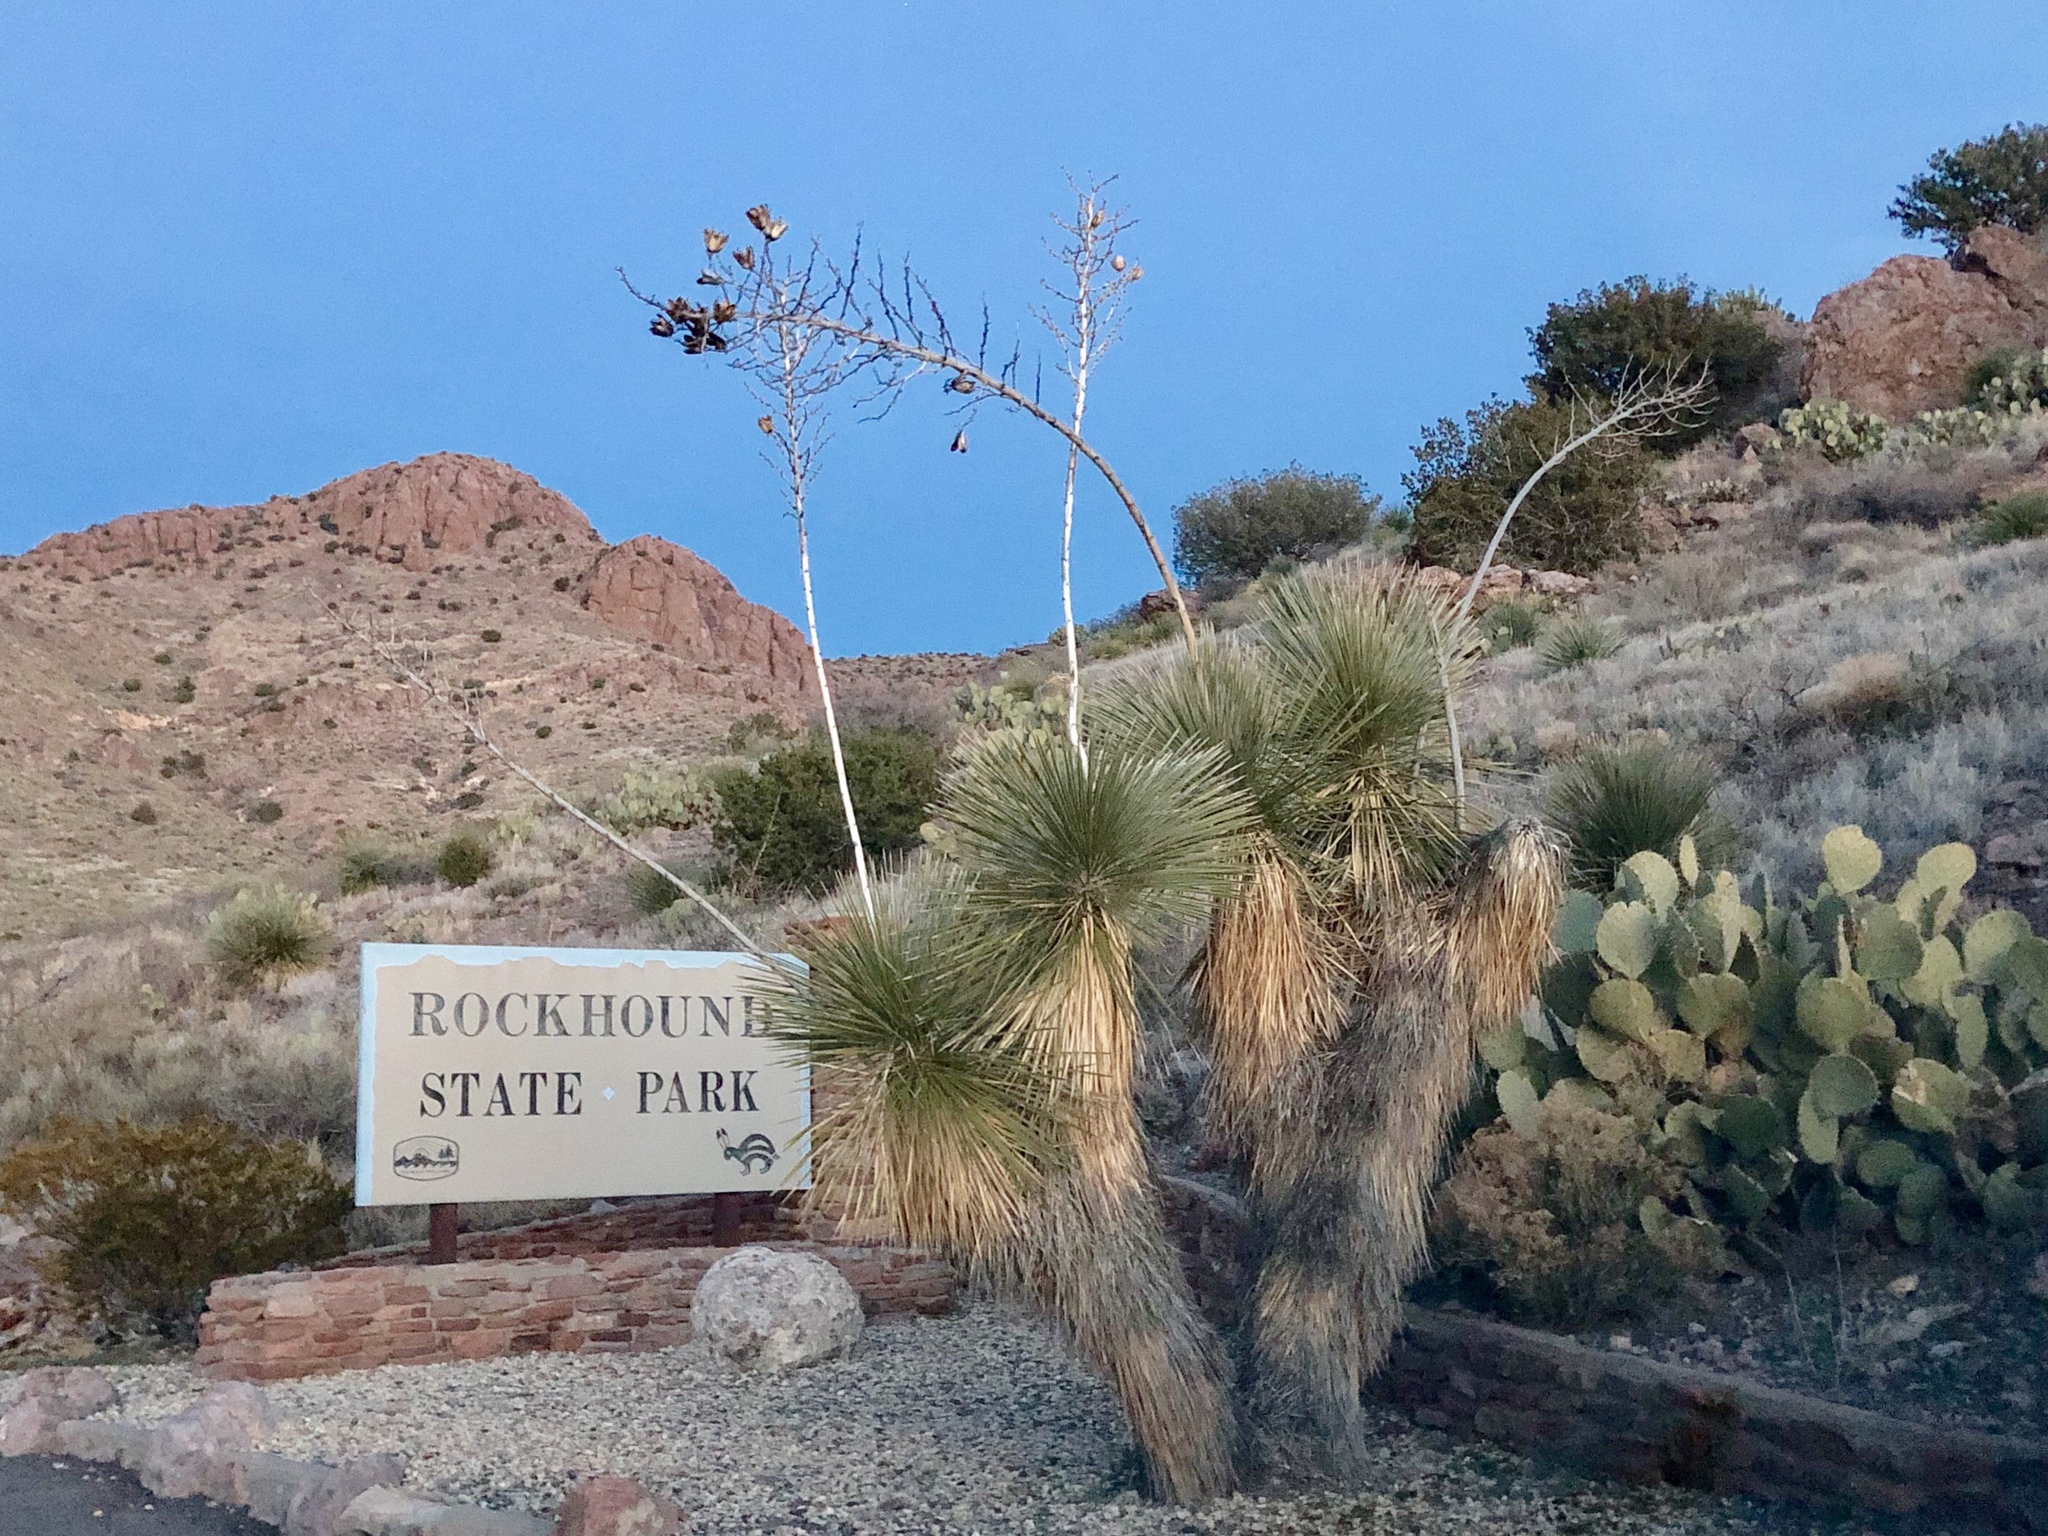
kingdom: Plantae
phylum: Tracheophyta
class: Liliopsida
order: Asparagales
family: Asparagaceae
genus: Yucca
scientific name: Yucca elata
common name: Palmella
